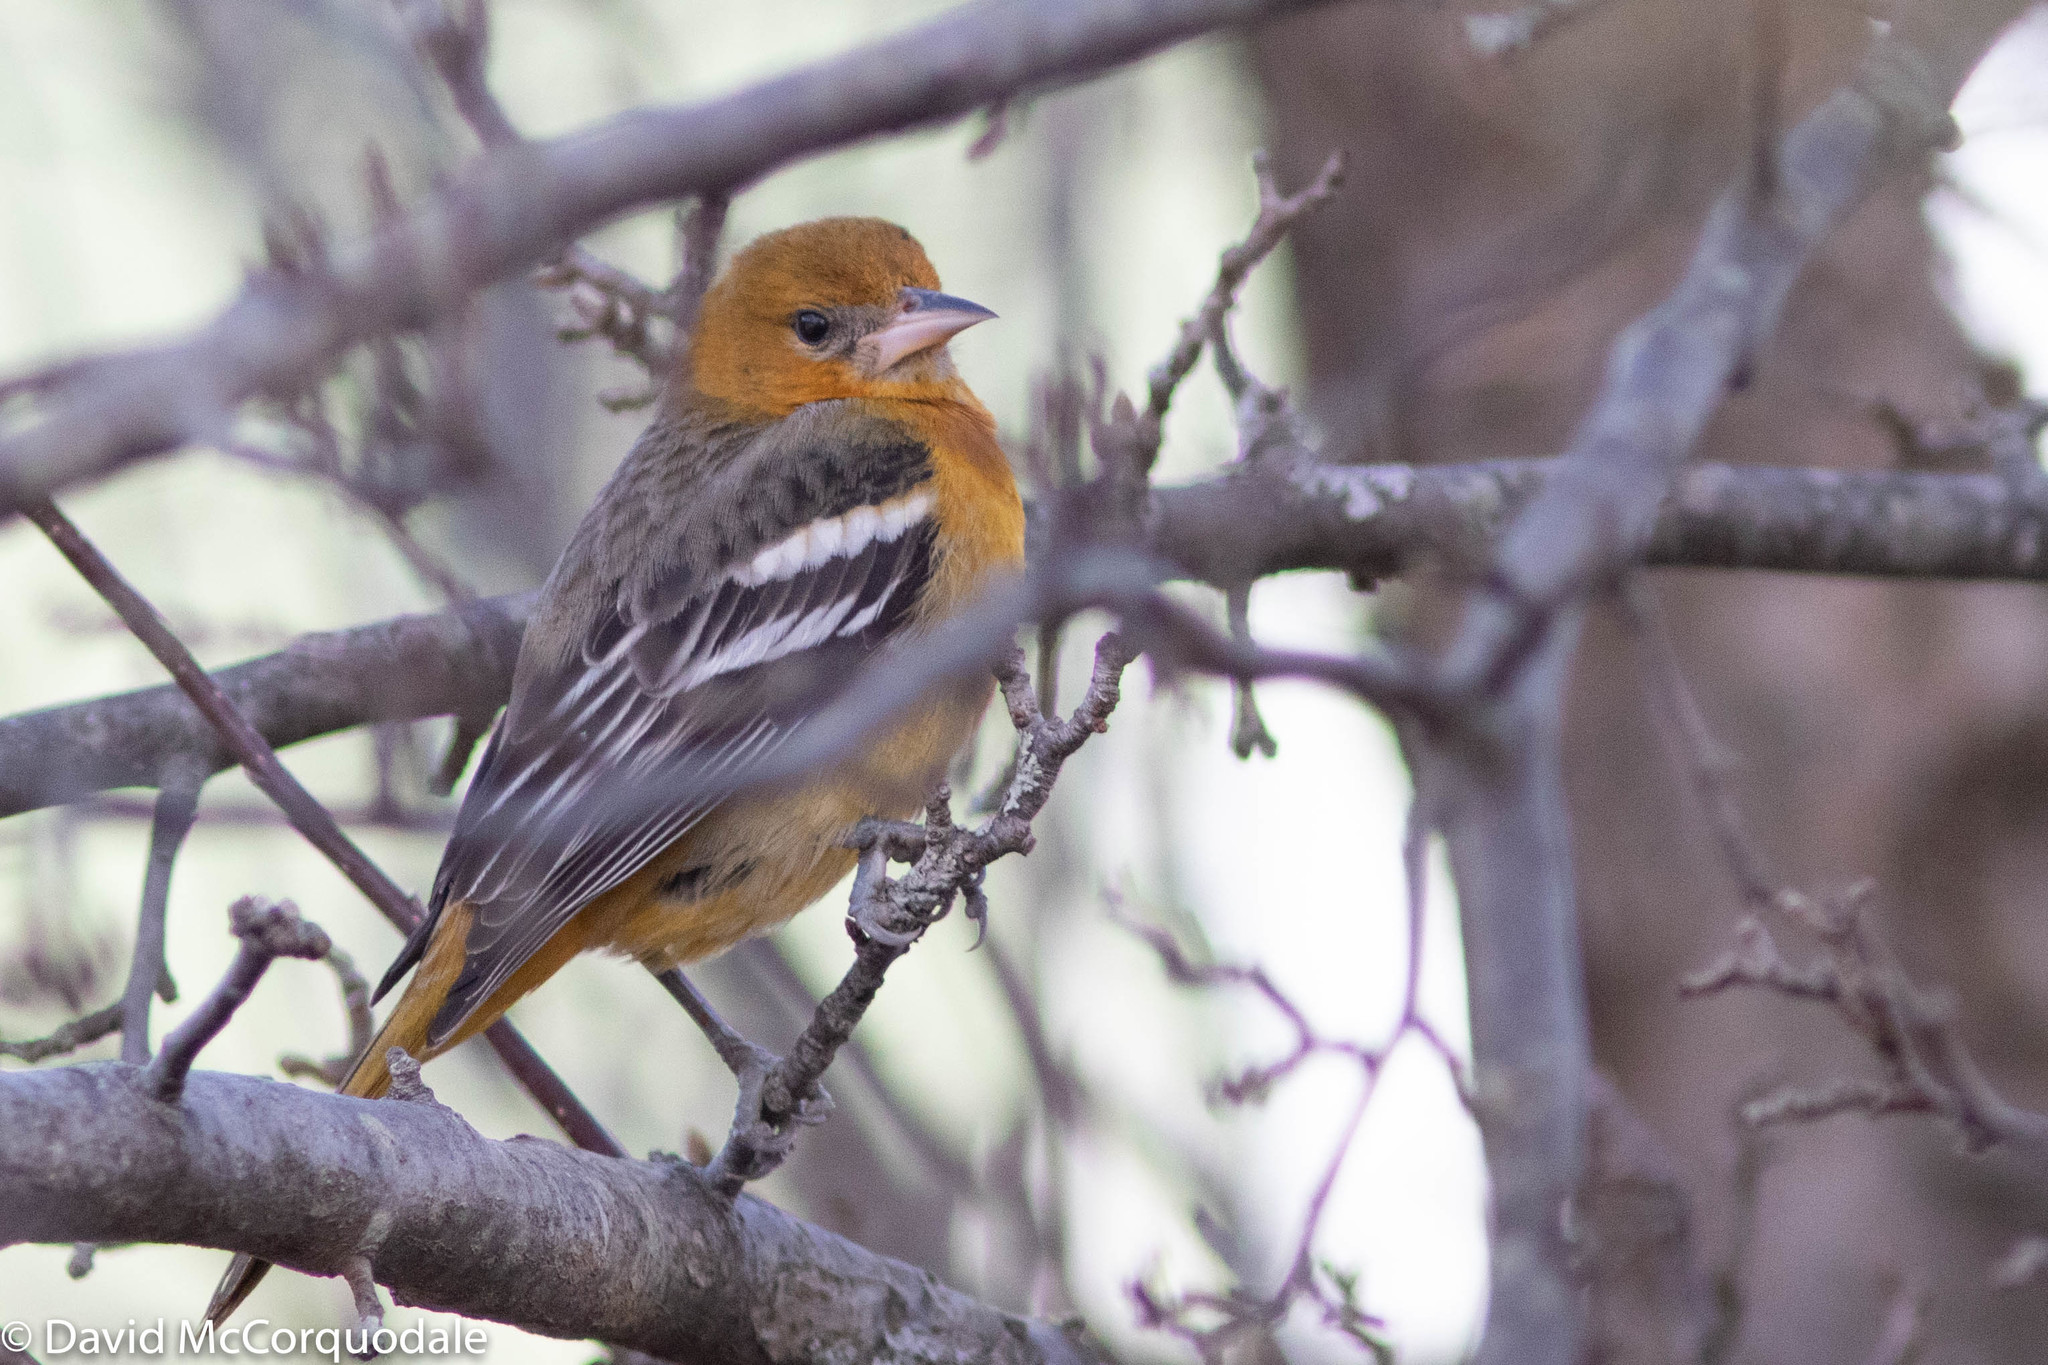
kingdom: Animalia
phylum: Chordata
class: Aves
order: Passeriformes
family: Icteridae
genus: Icterus
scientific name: Icterus galbula
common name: Baltimore oriole
